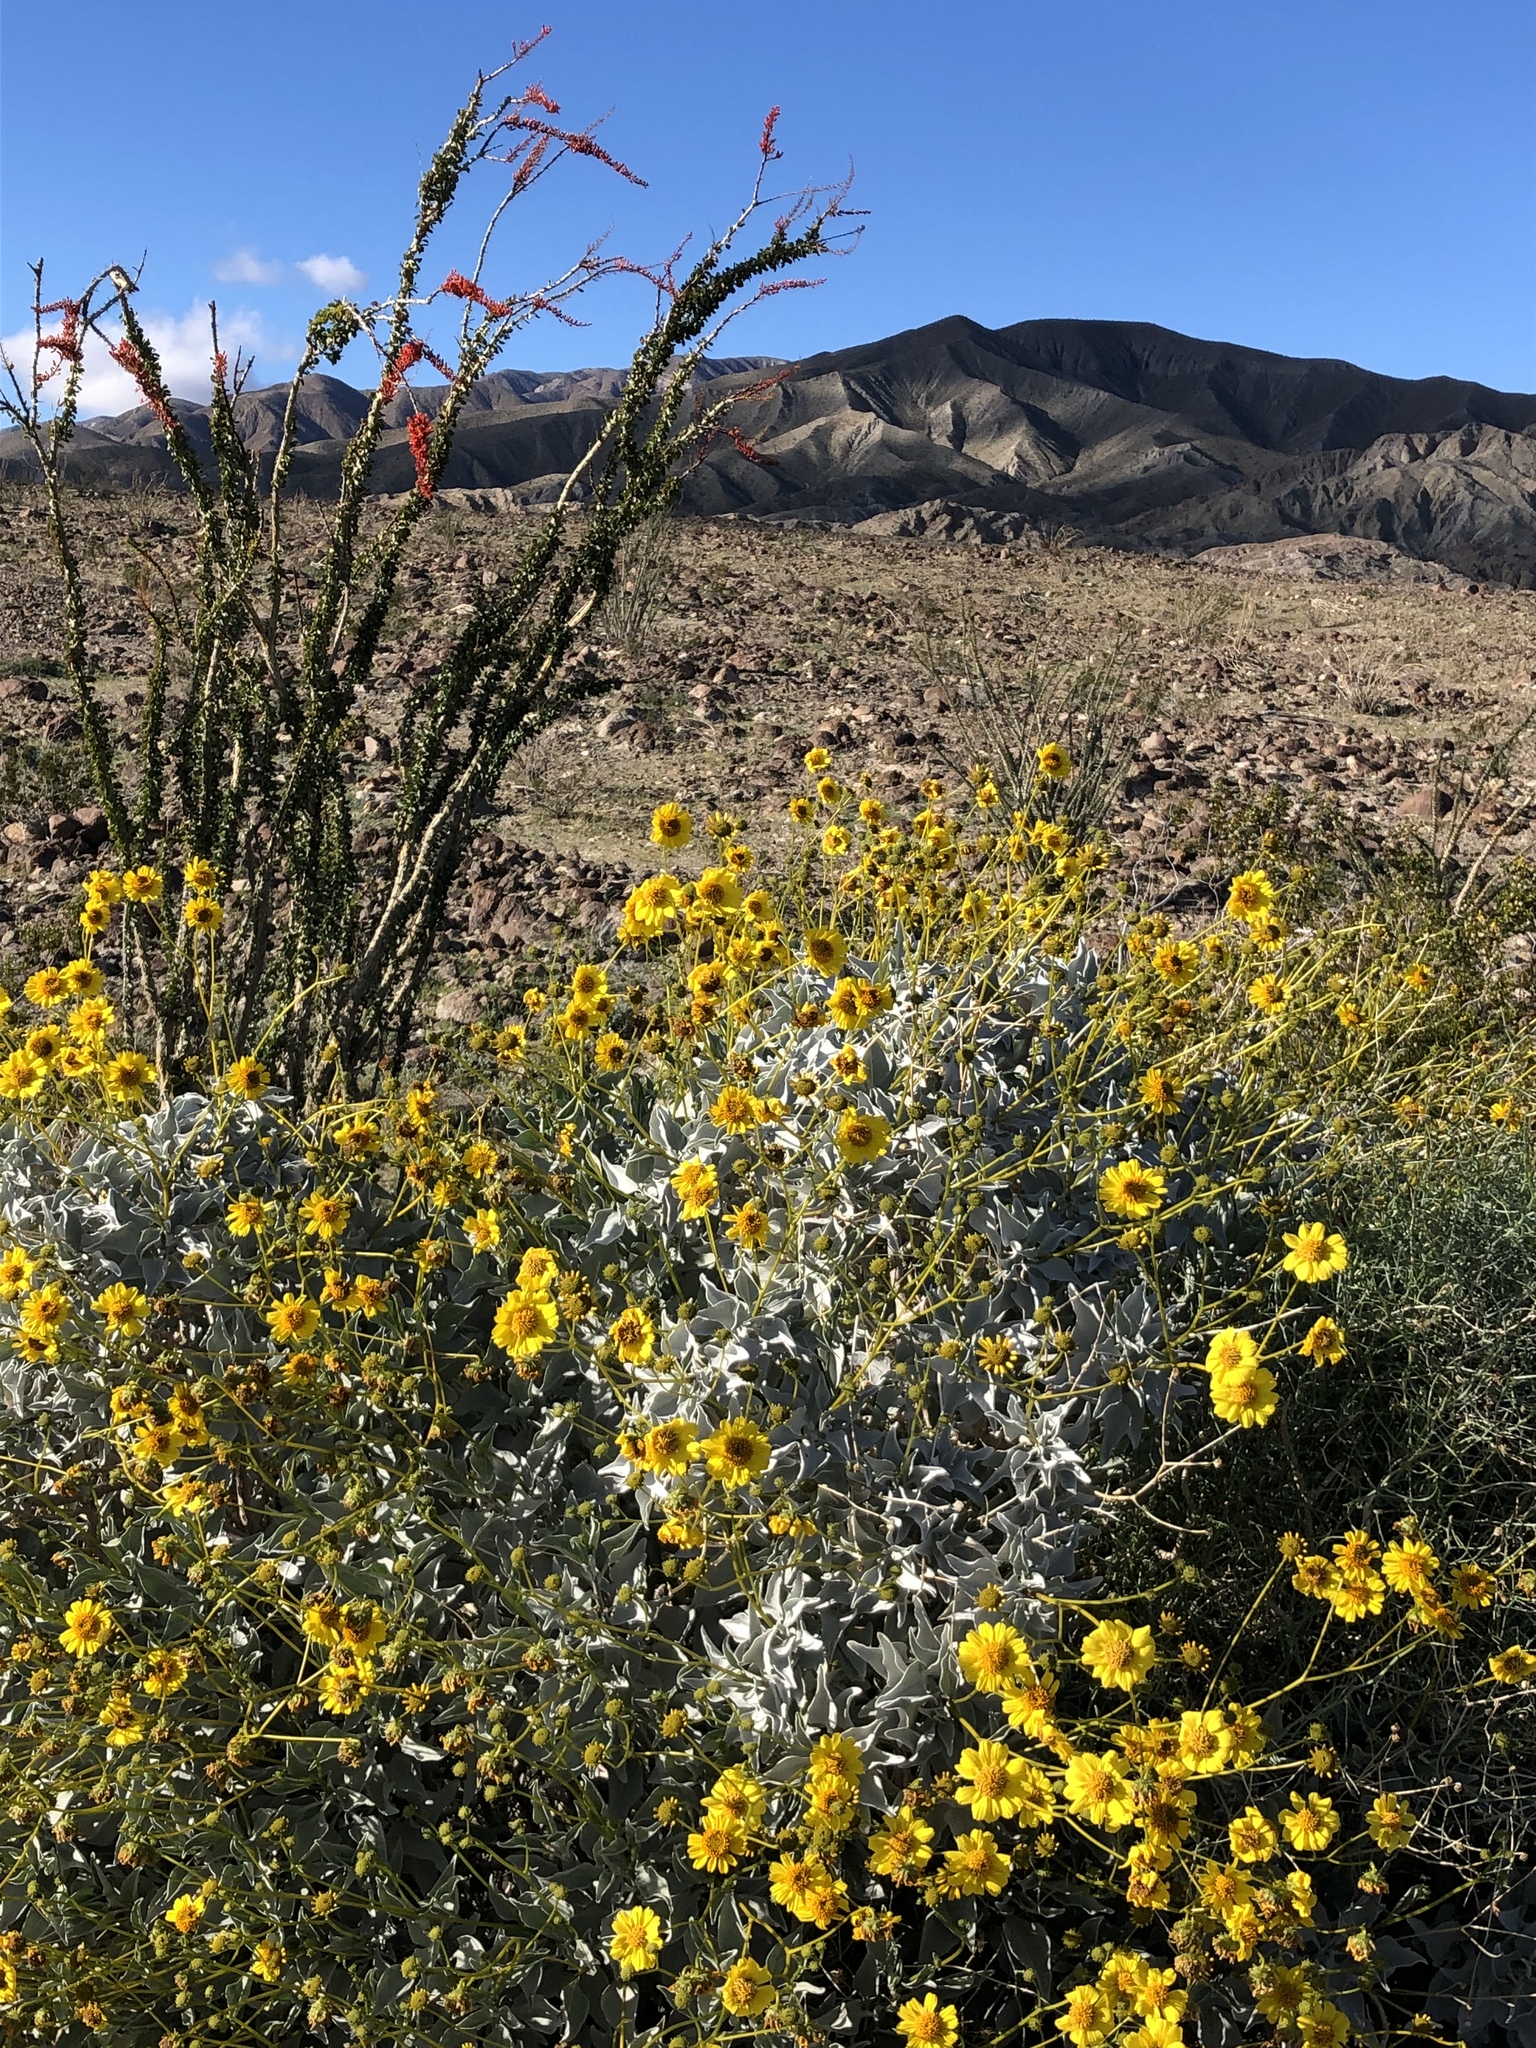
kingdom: Plantae
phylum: Tracheophyta
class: Magnoliopsida
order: Asterales
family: Asteraceae
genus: Encelia
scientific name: Encelia farinosa
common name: Brittlebush
